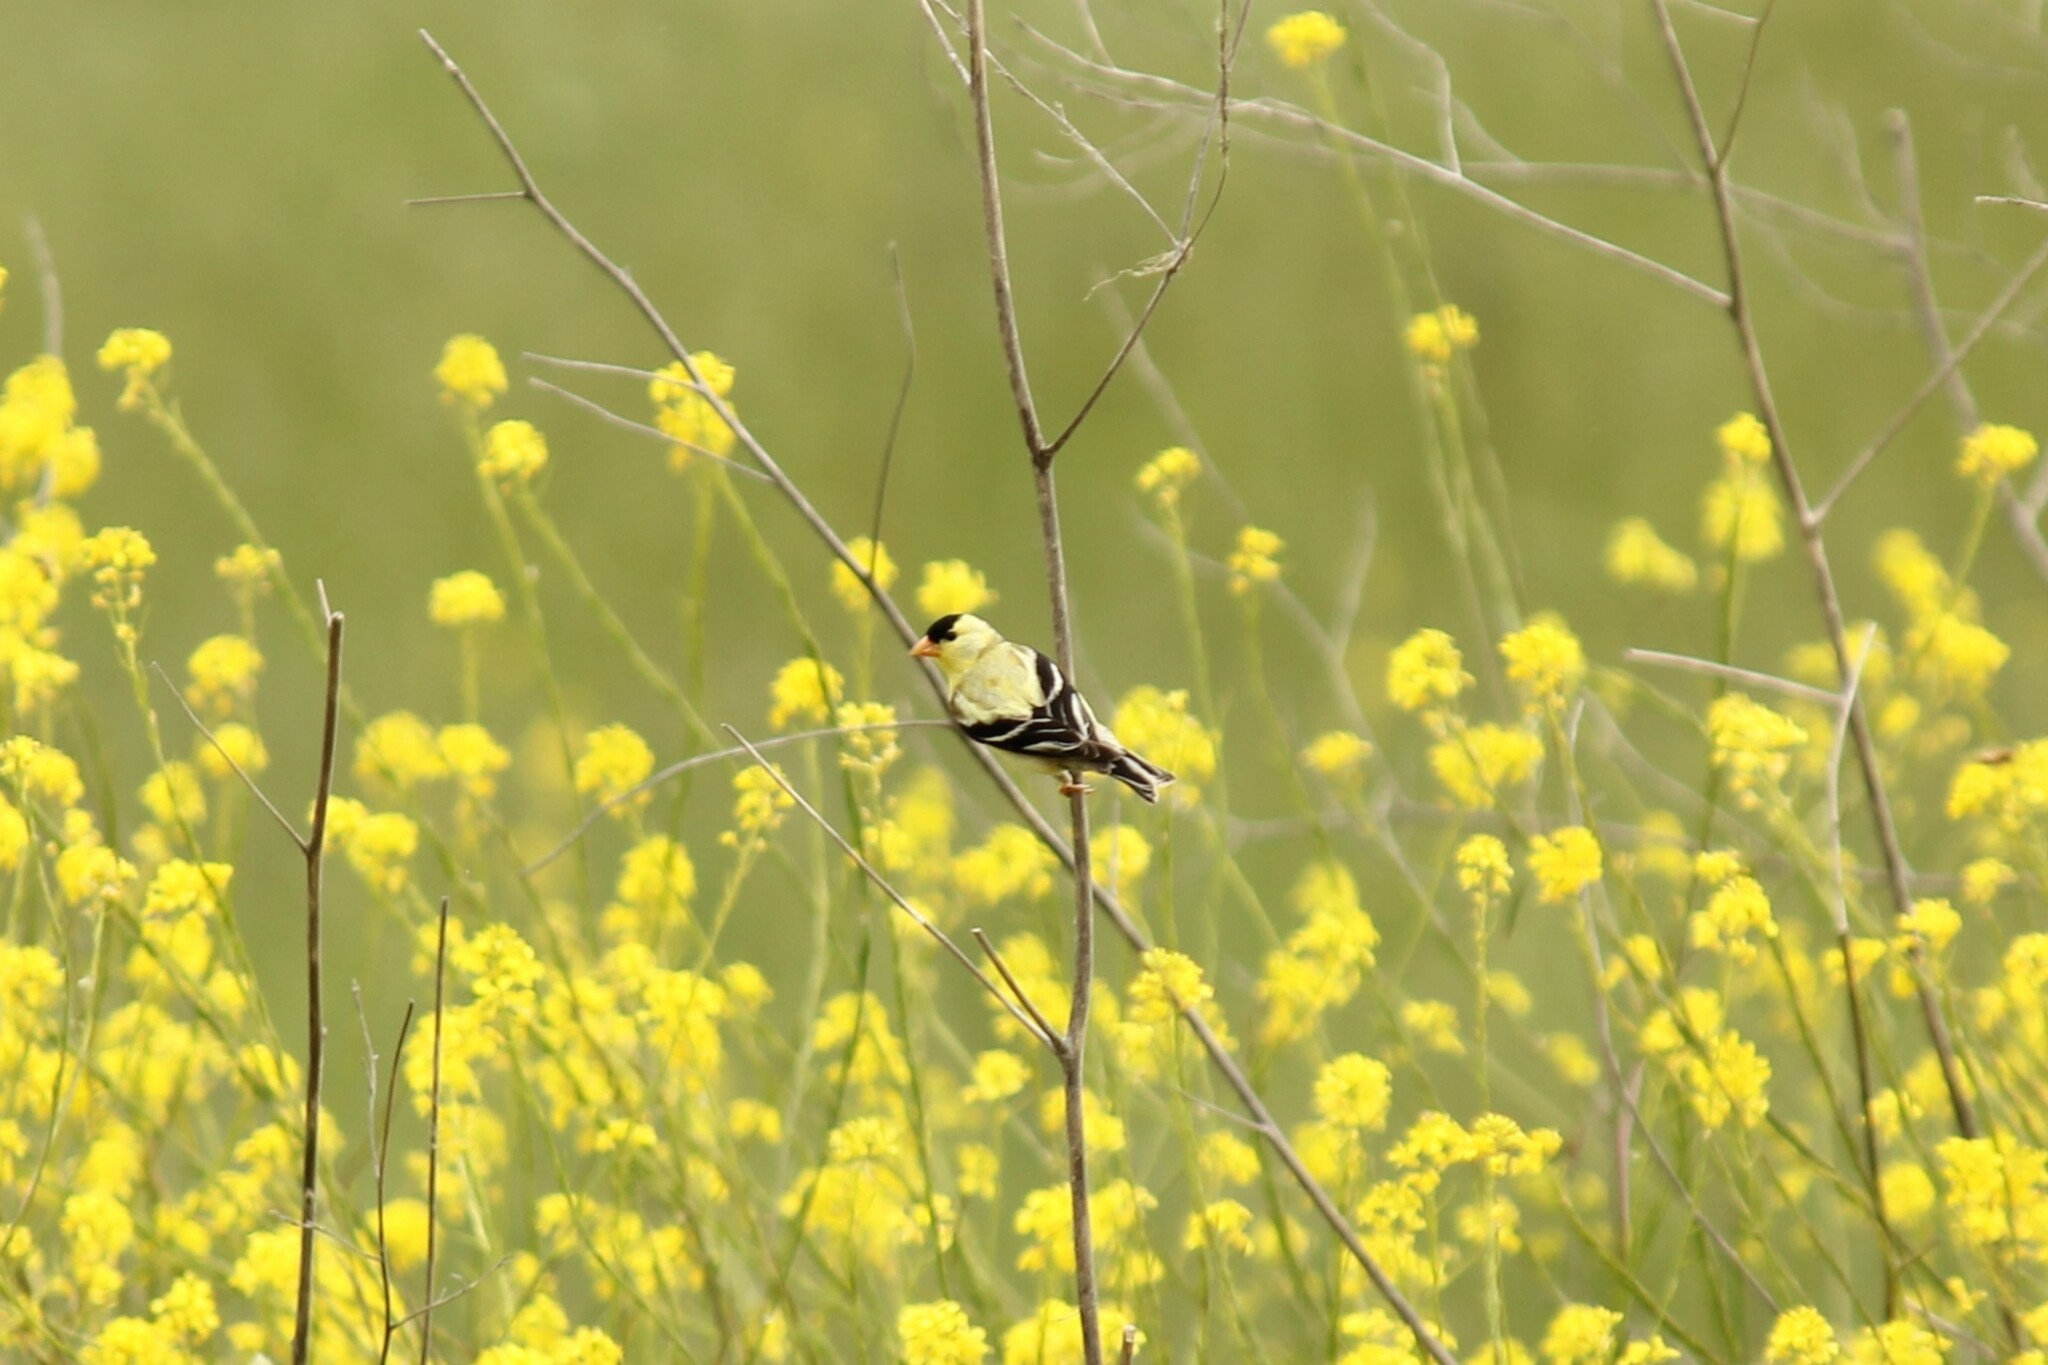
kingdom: Animalia
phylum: Chordata
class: Aves
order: Passeriformes
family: Fringillidae
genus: Spinus
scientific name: Spinus tristis
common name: American goldfinch
